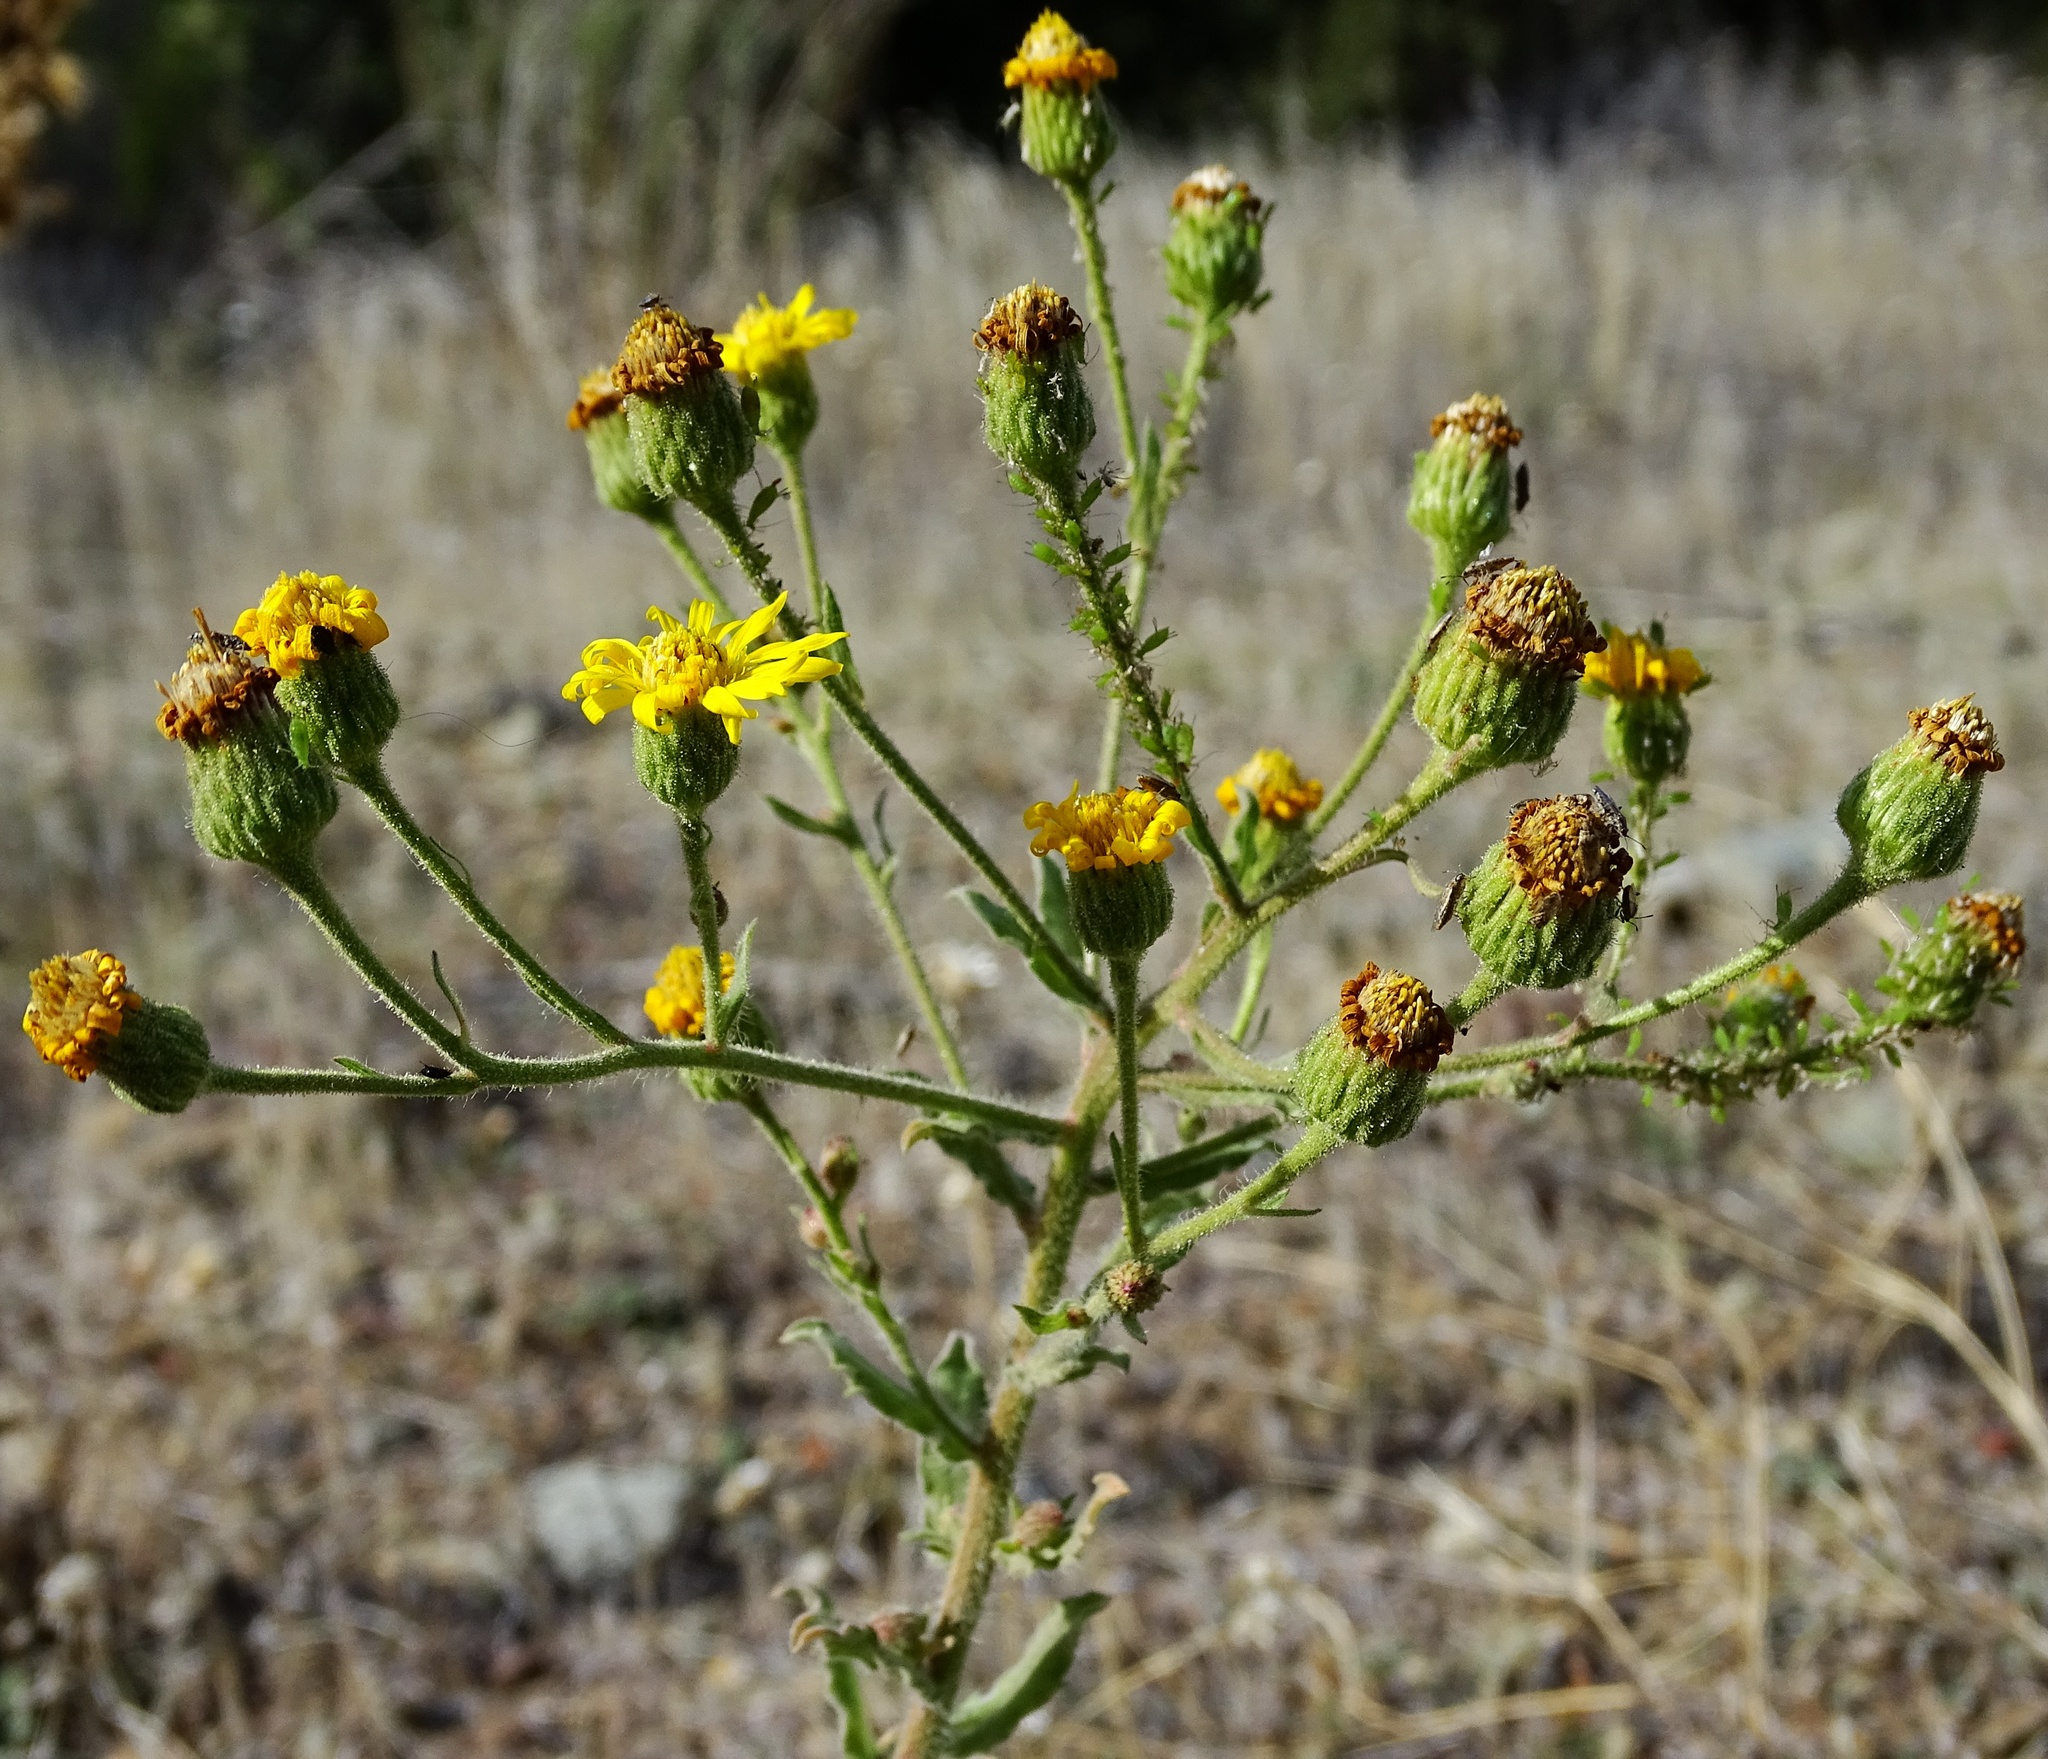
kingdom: Plantae
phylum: Tracheophyta
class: Magnoliopsida
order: Asterales
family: Asteraceae
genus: Heterotheca
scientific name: Heterotheca grandiflora
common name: Telegraphweed
